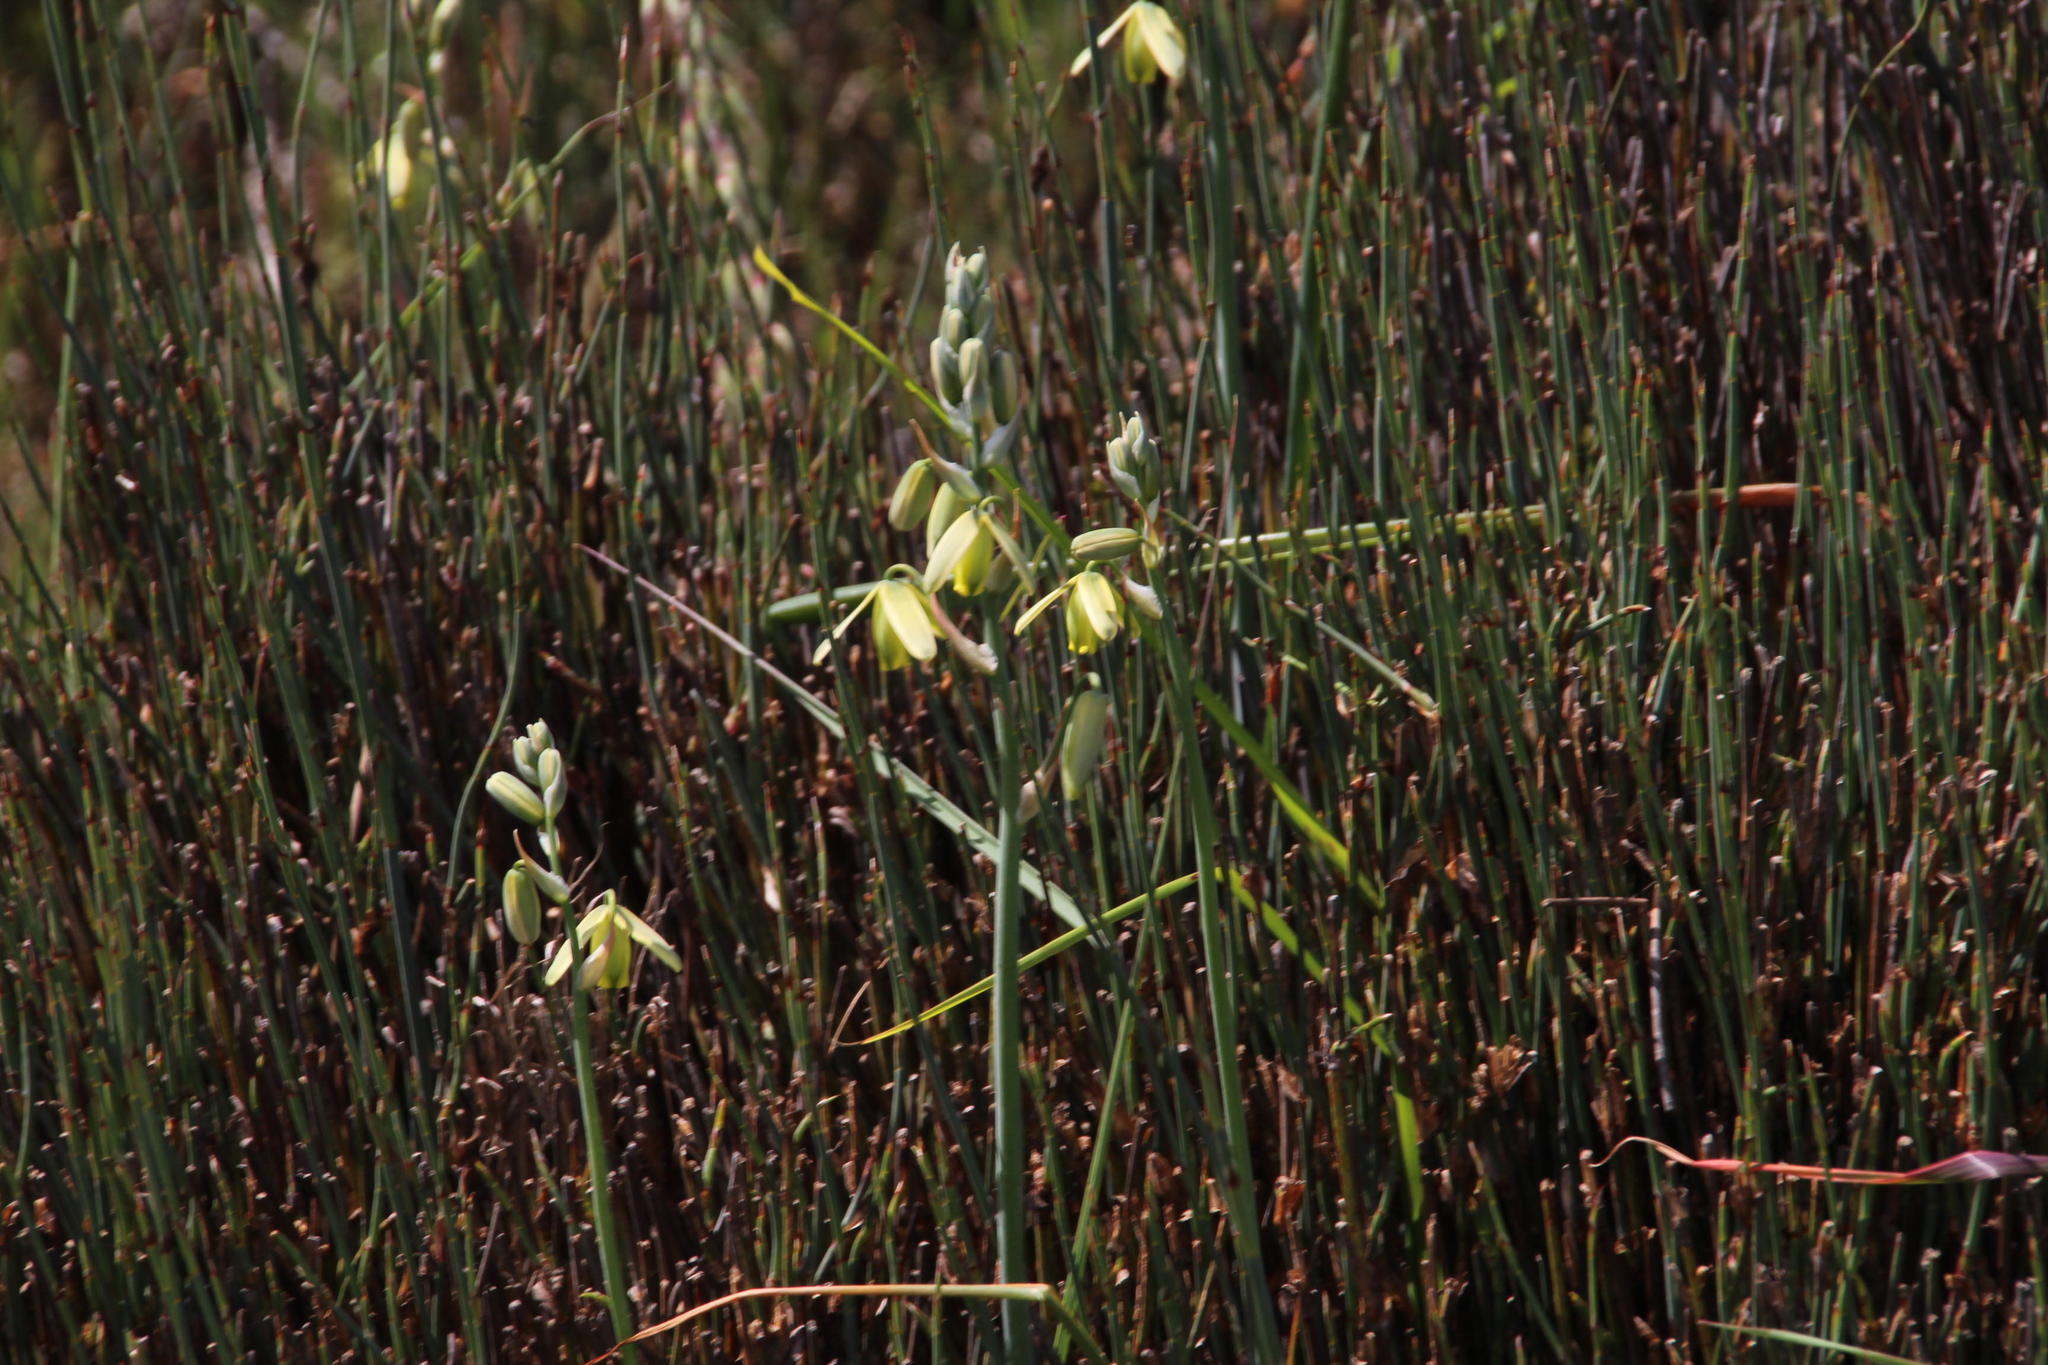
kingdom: Plantae
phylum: Tracheophyta
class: Liliopsida
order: Poales
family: Restionaceae
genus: Willdenowia
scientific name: Willdenowia incurvata
